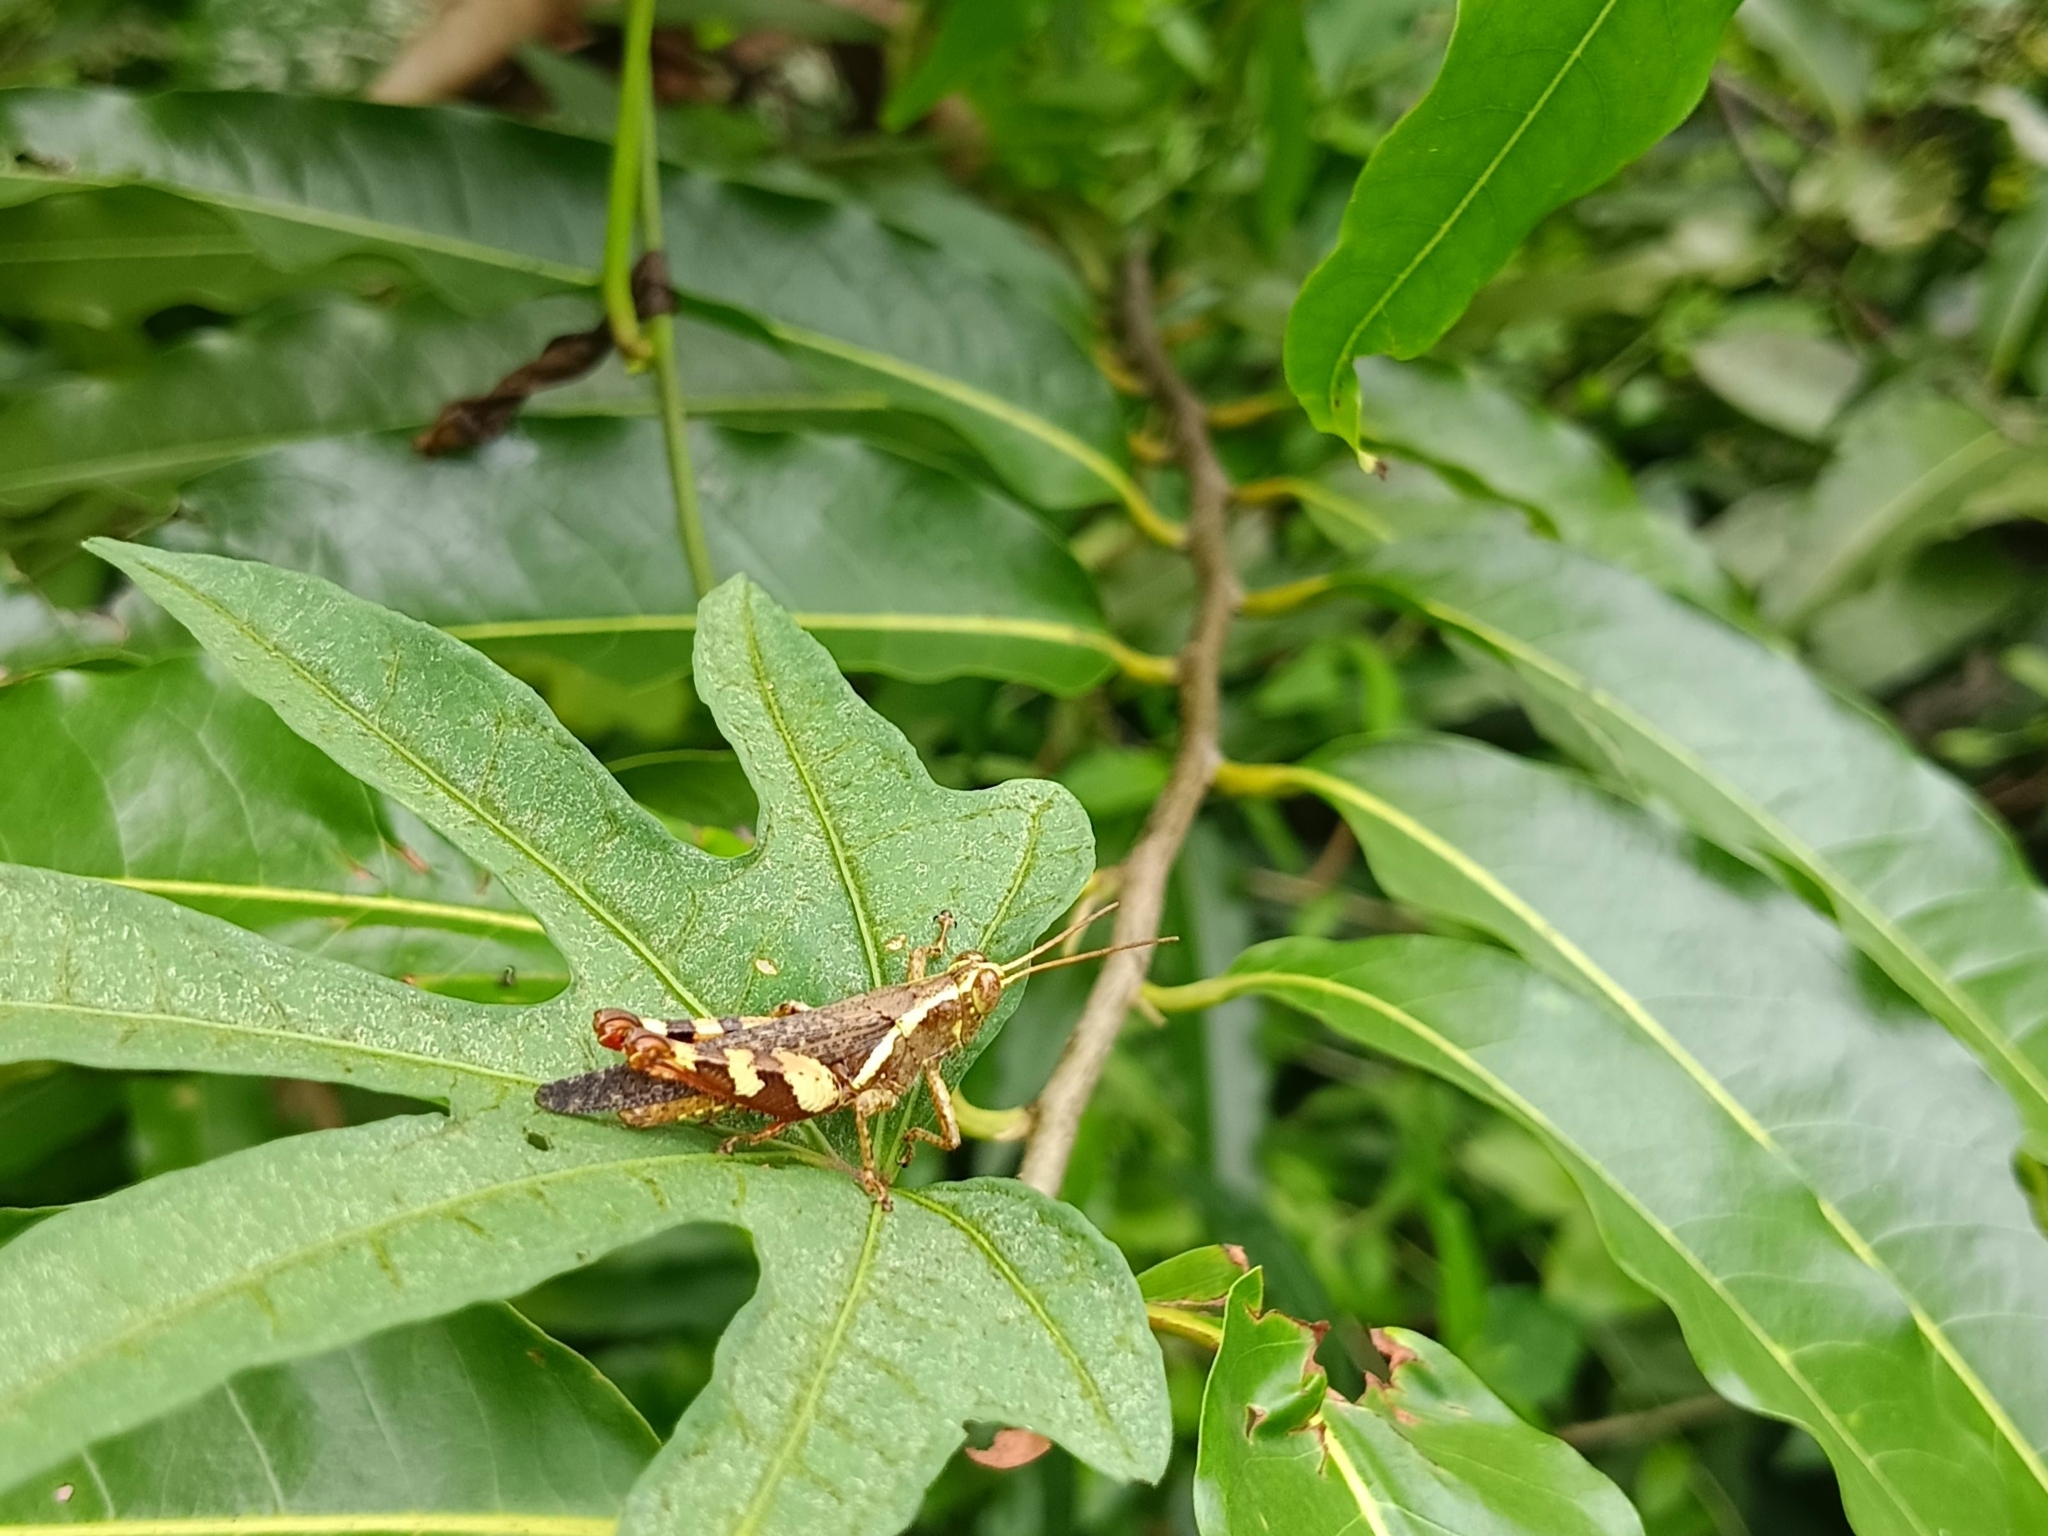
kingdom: Animalia
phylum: Arthropoda
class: Insecta
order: Orthoptera
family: Acrididae
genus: Xenocatantops
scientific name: Xenocatantops humile
